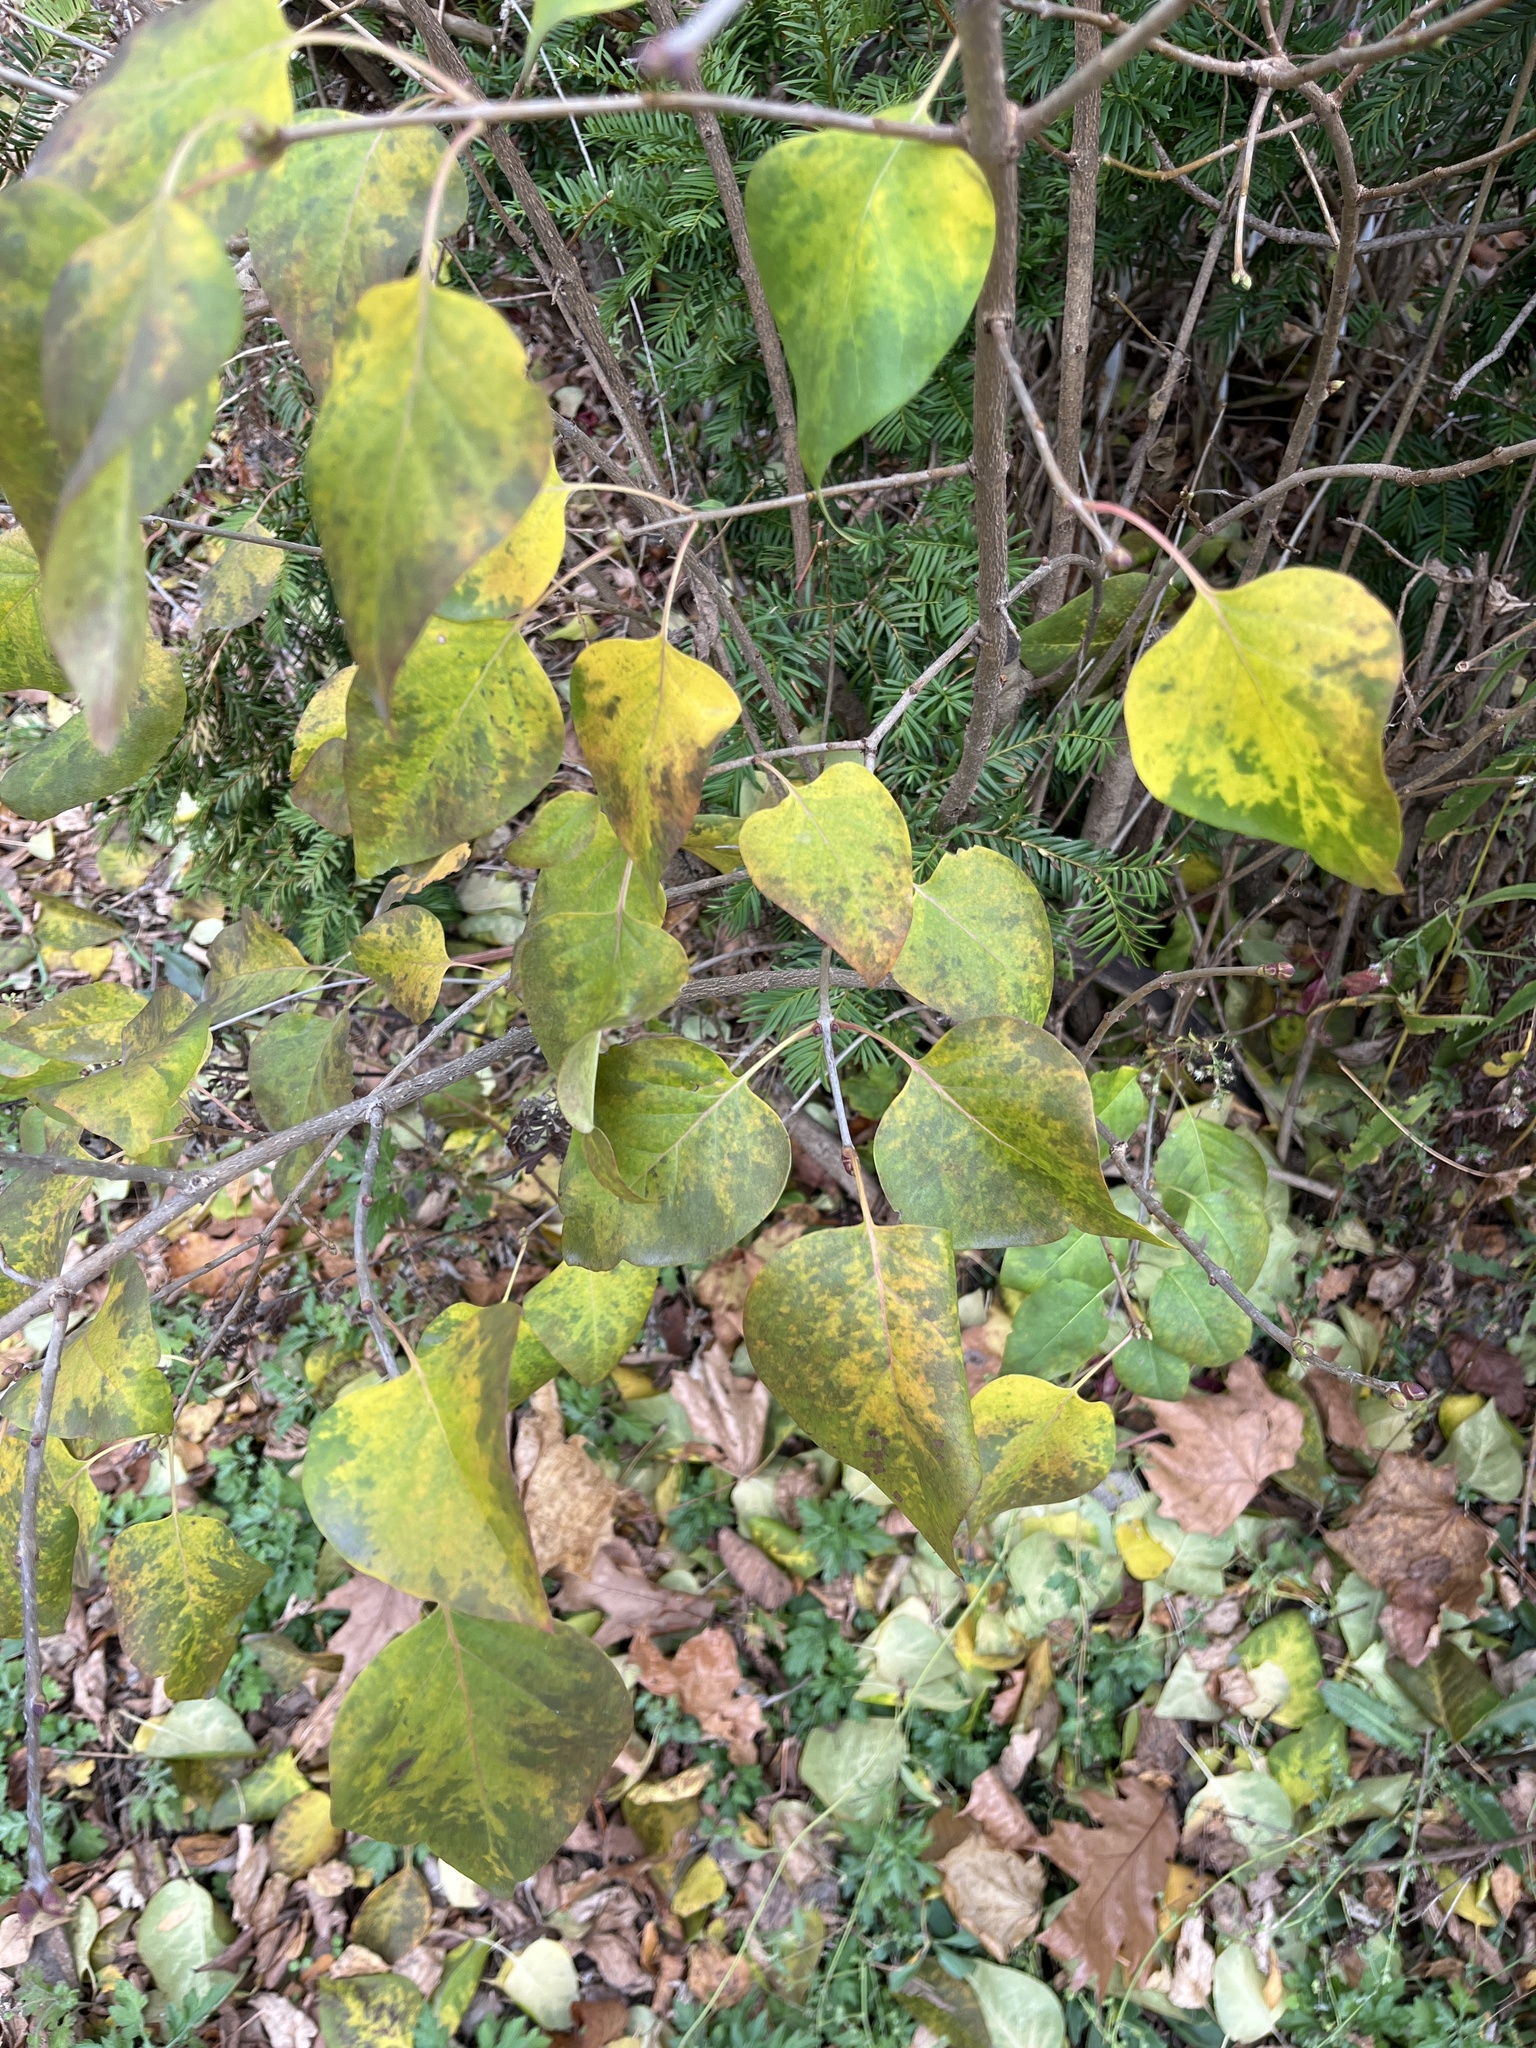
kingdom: Plantae
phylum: Tracheophyta
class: Magnoliopsida
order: Lamiales
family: Oleaceae
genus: Syringa
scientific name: Syringa vulgaris
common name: Common lilac
